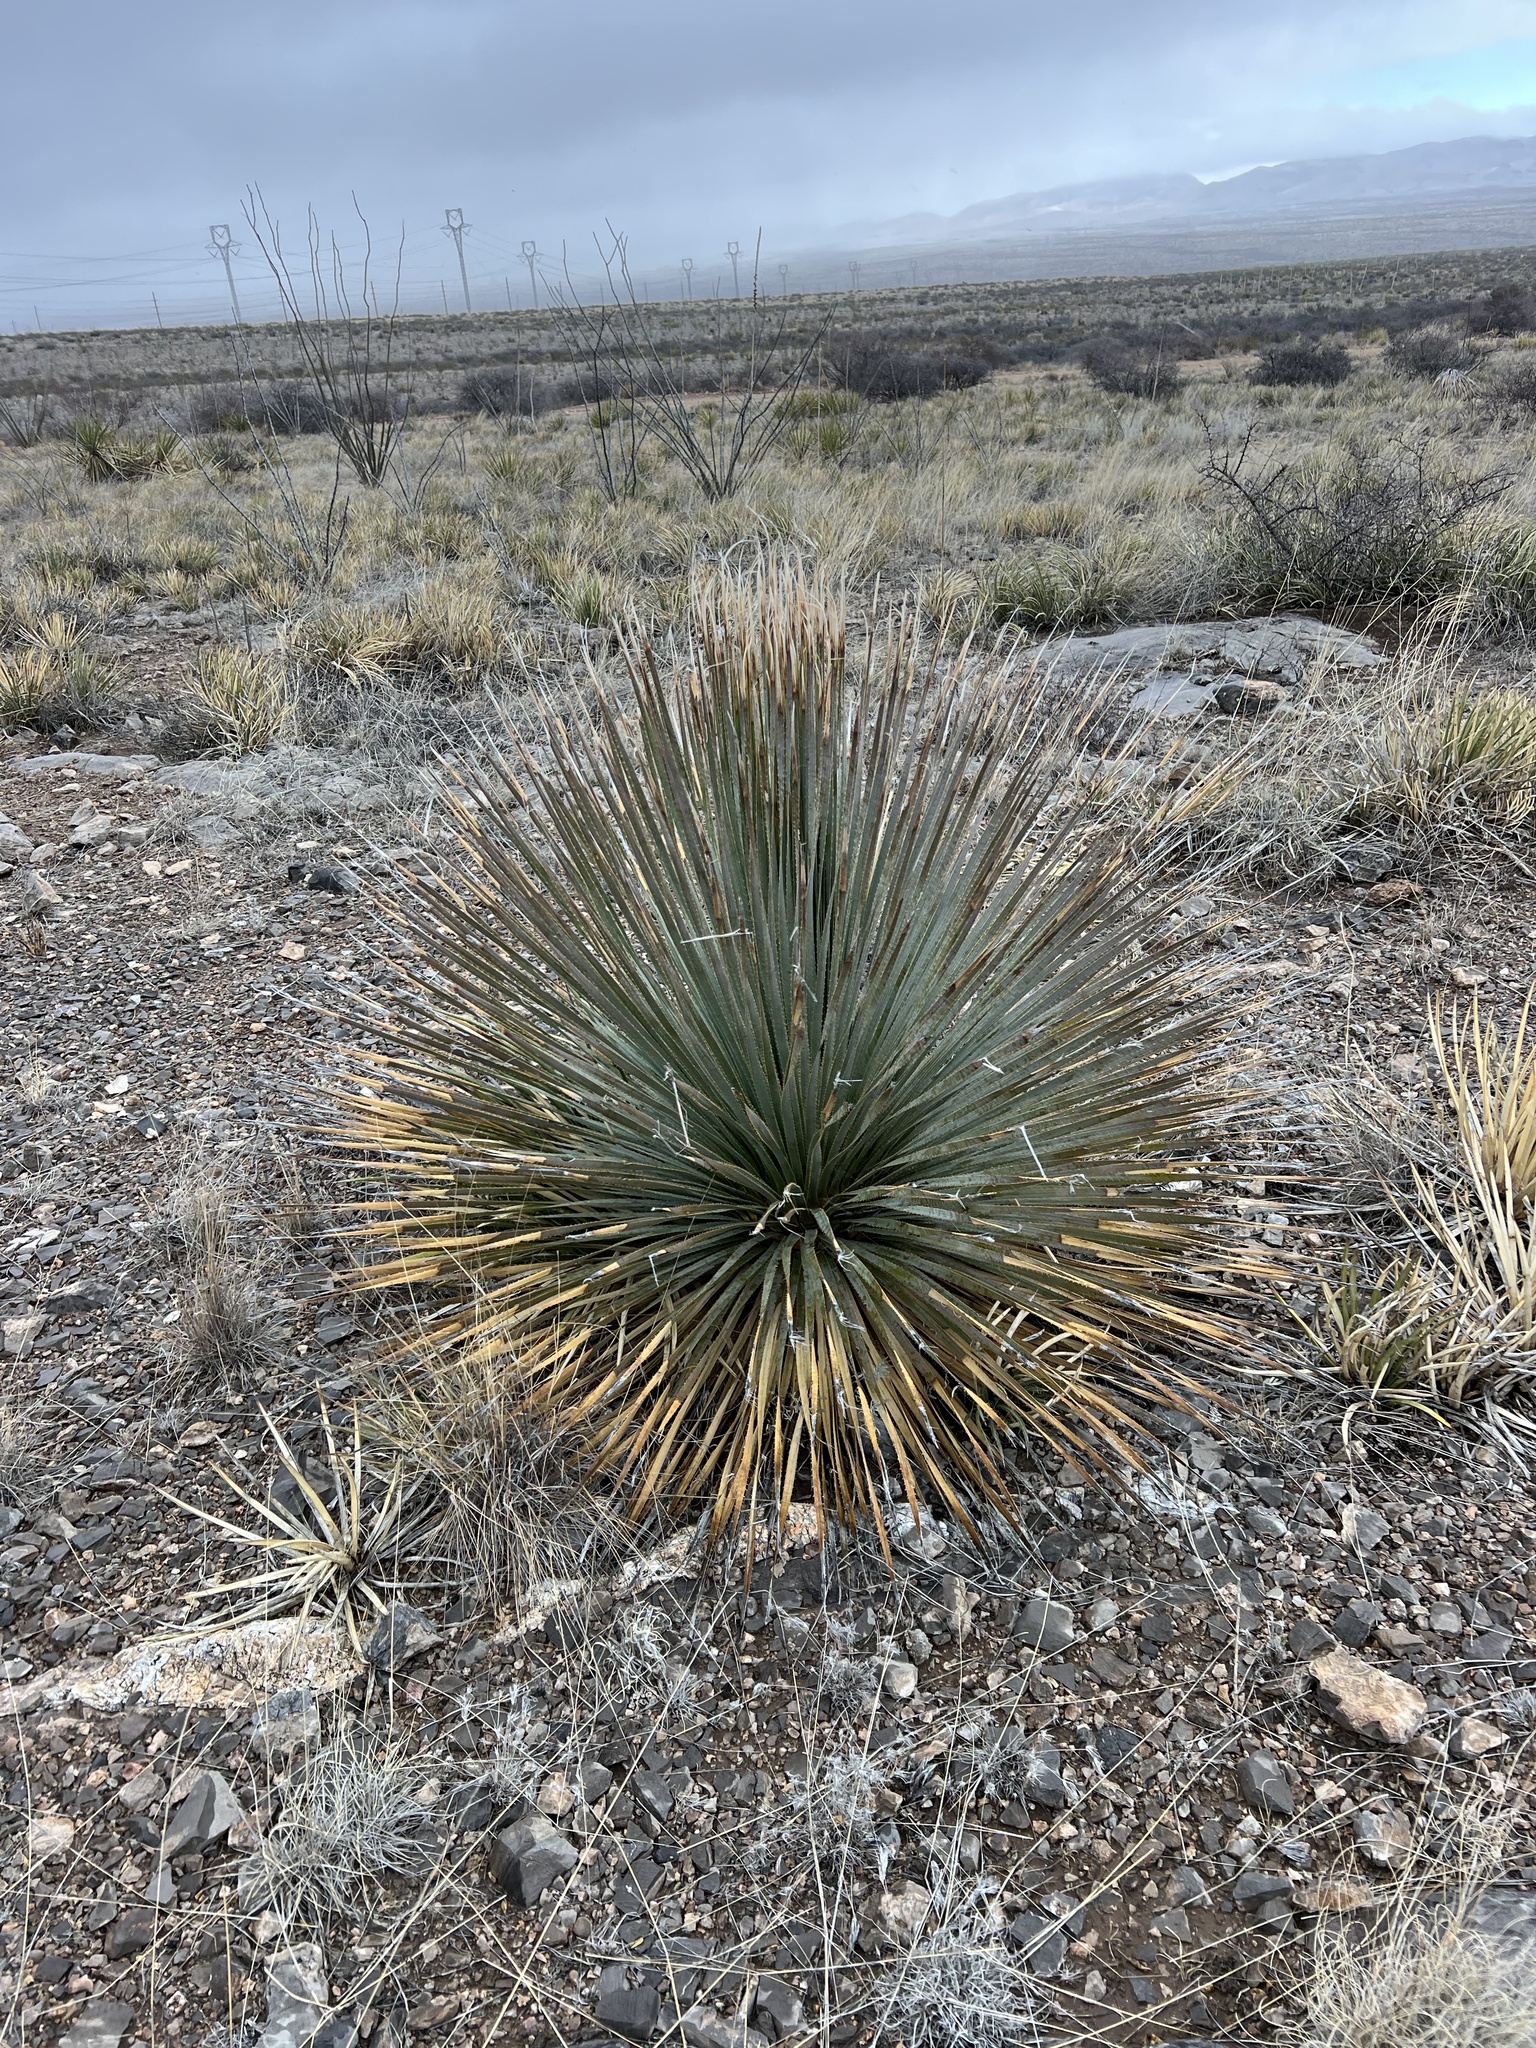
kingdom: Plantae
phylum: Tracheophyta
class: Liliopsida
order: Asparagales
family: Asparagaceae
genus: Dasylirion
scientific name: Dasylirion wheeleri
